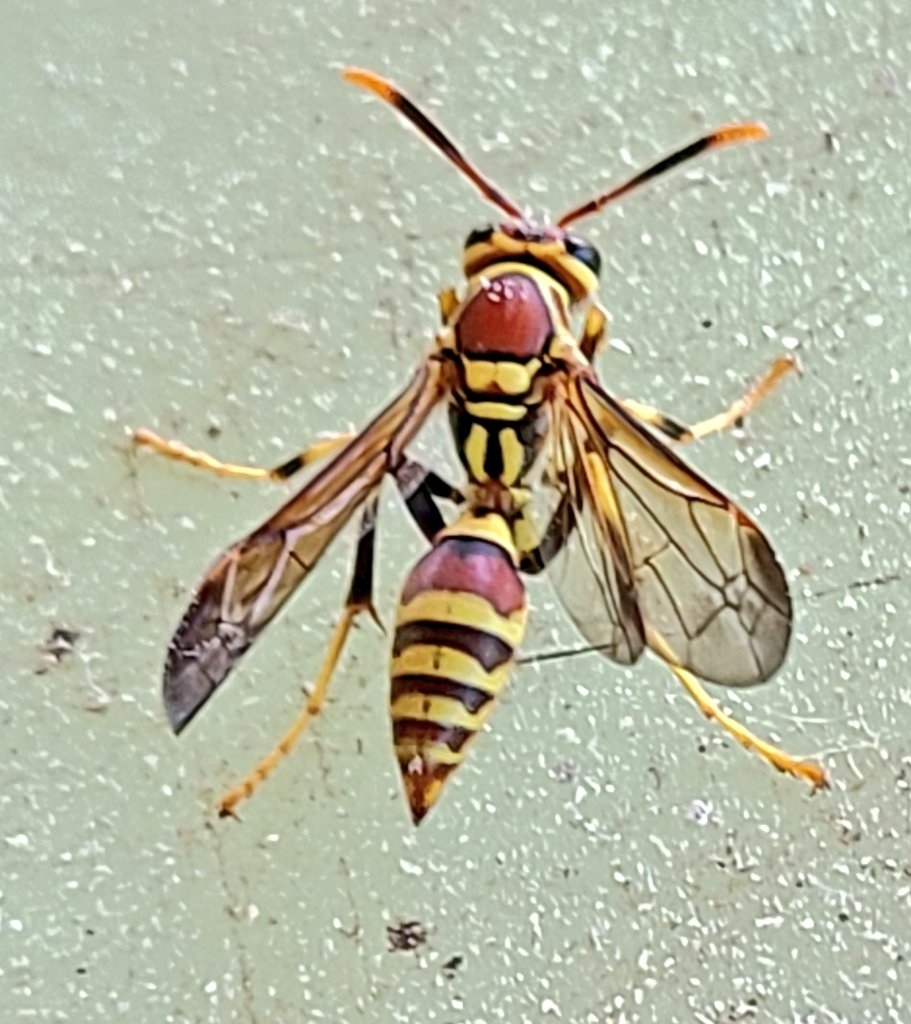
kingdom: Animalia
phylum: Arthropoda
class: Insecta
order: Hymenoptera
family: Eumenidae
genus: Polistes
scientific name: Polistes exclamans
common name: Paper wasp
